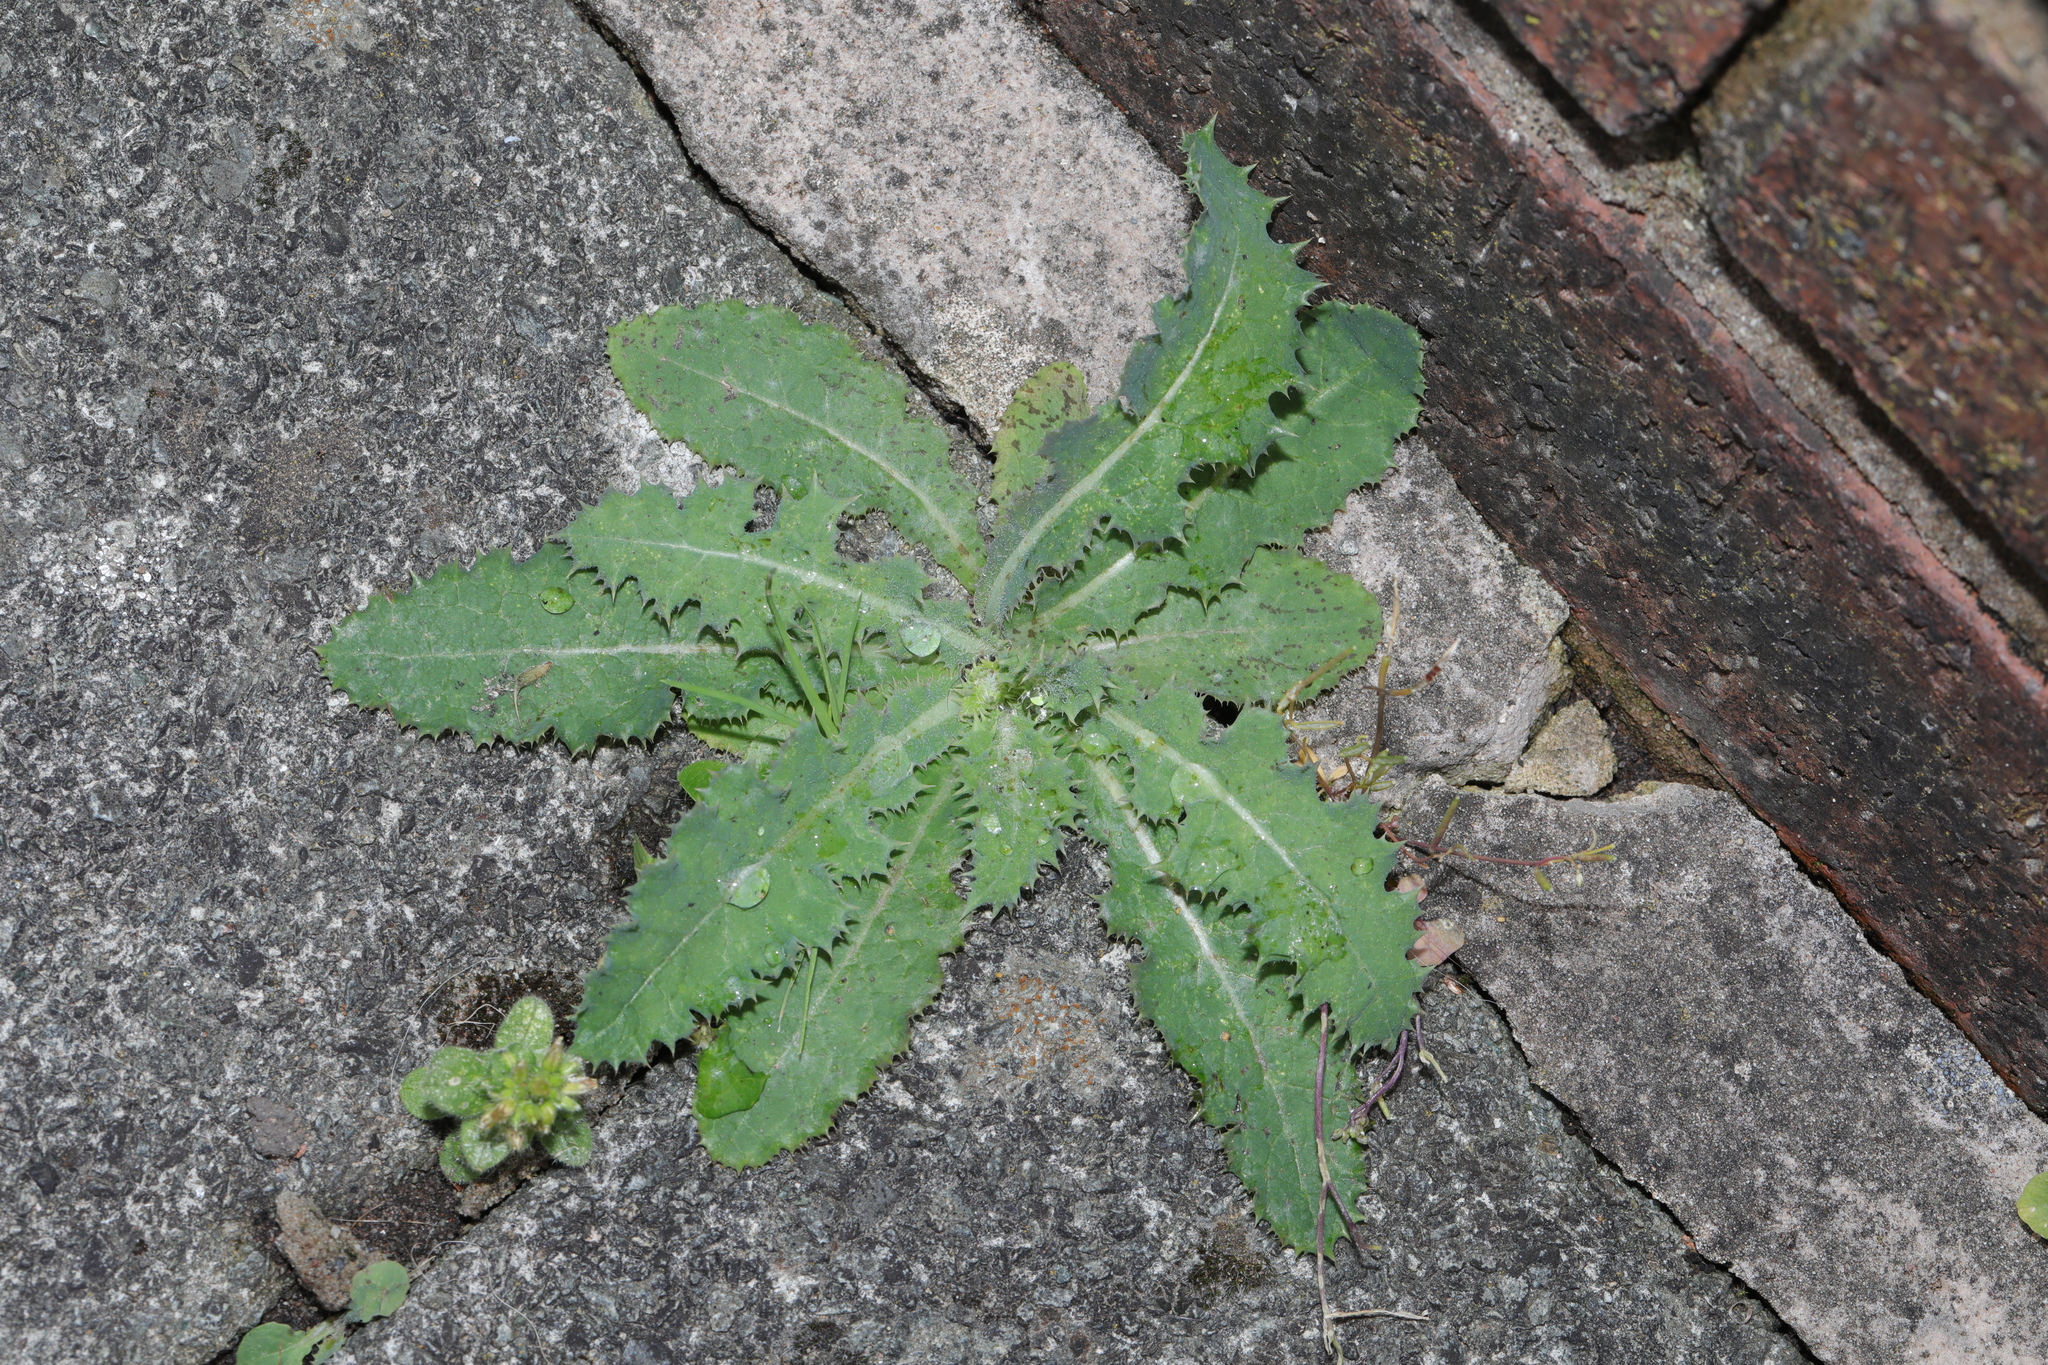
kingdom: Plantae
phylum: Tracheophyta
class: Magnoliopsida
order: Asterales
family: Asteraceae
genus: Sonchus
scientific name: Sonchus asper
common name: Prickly sow-thistle
